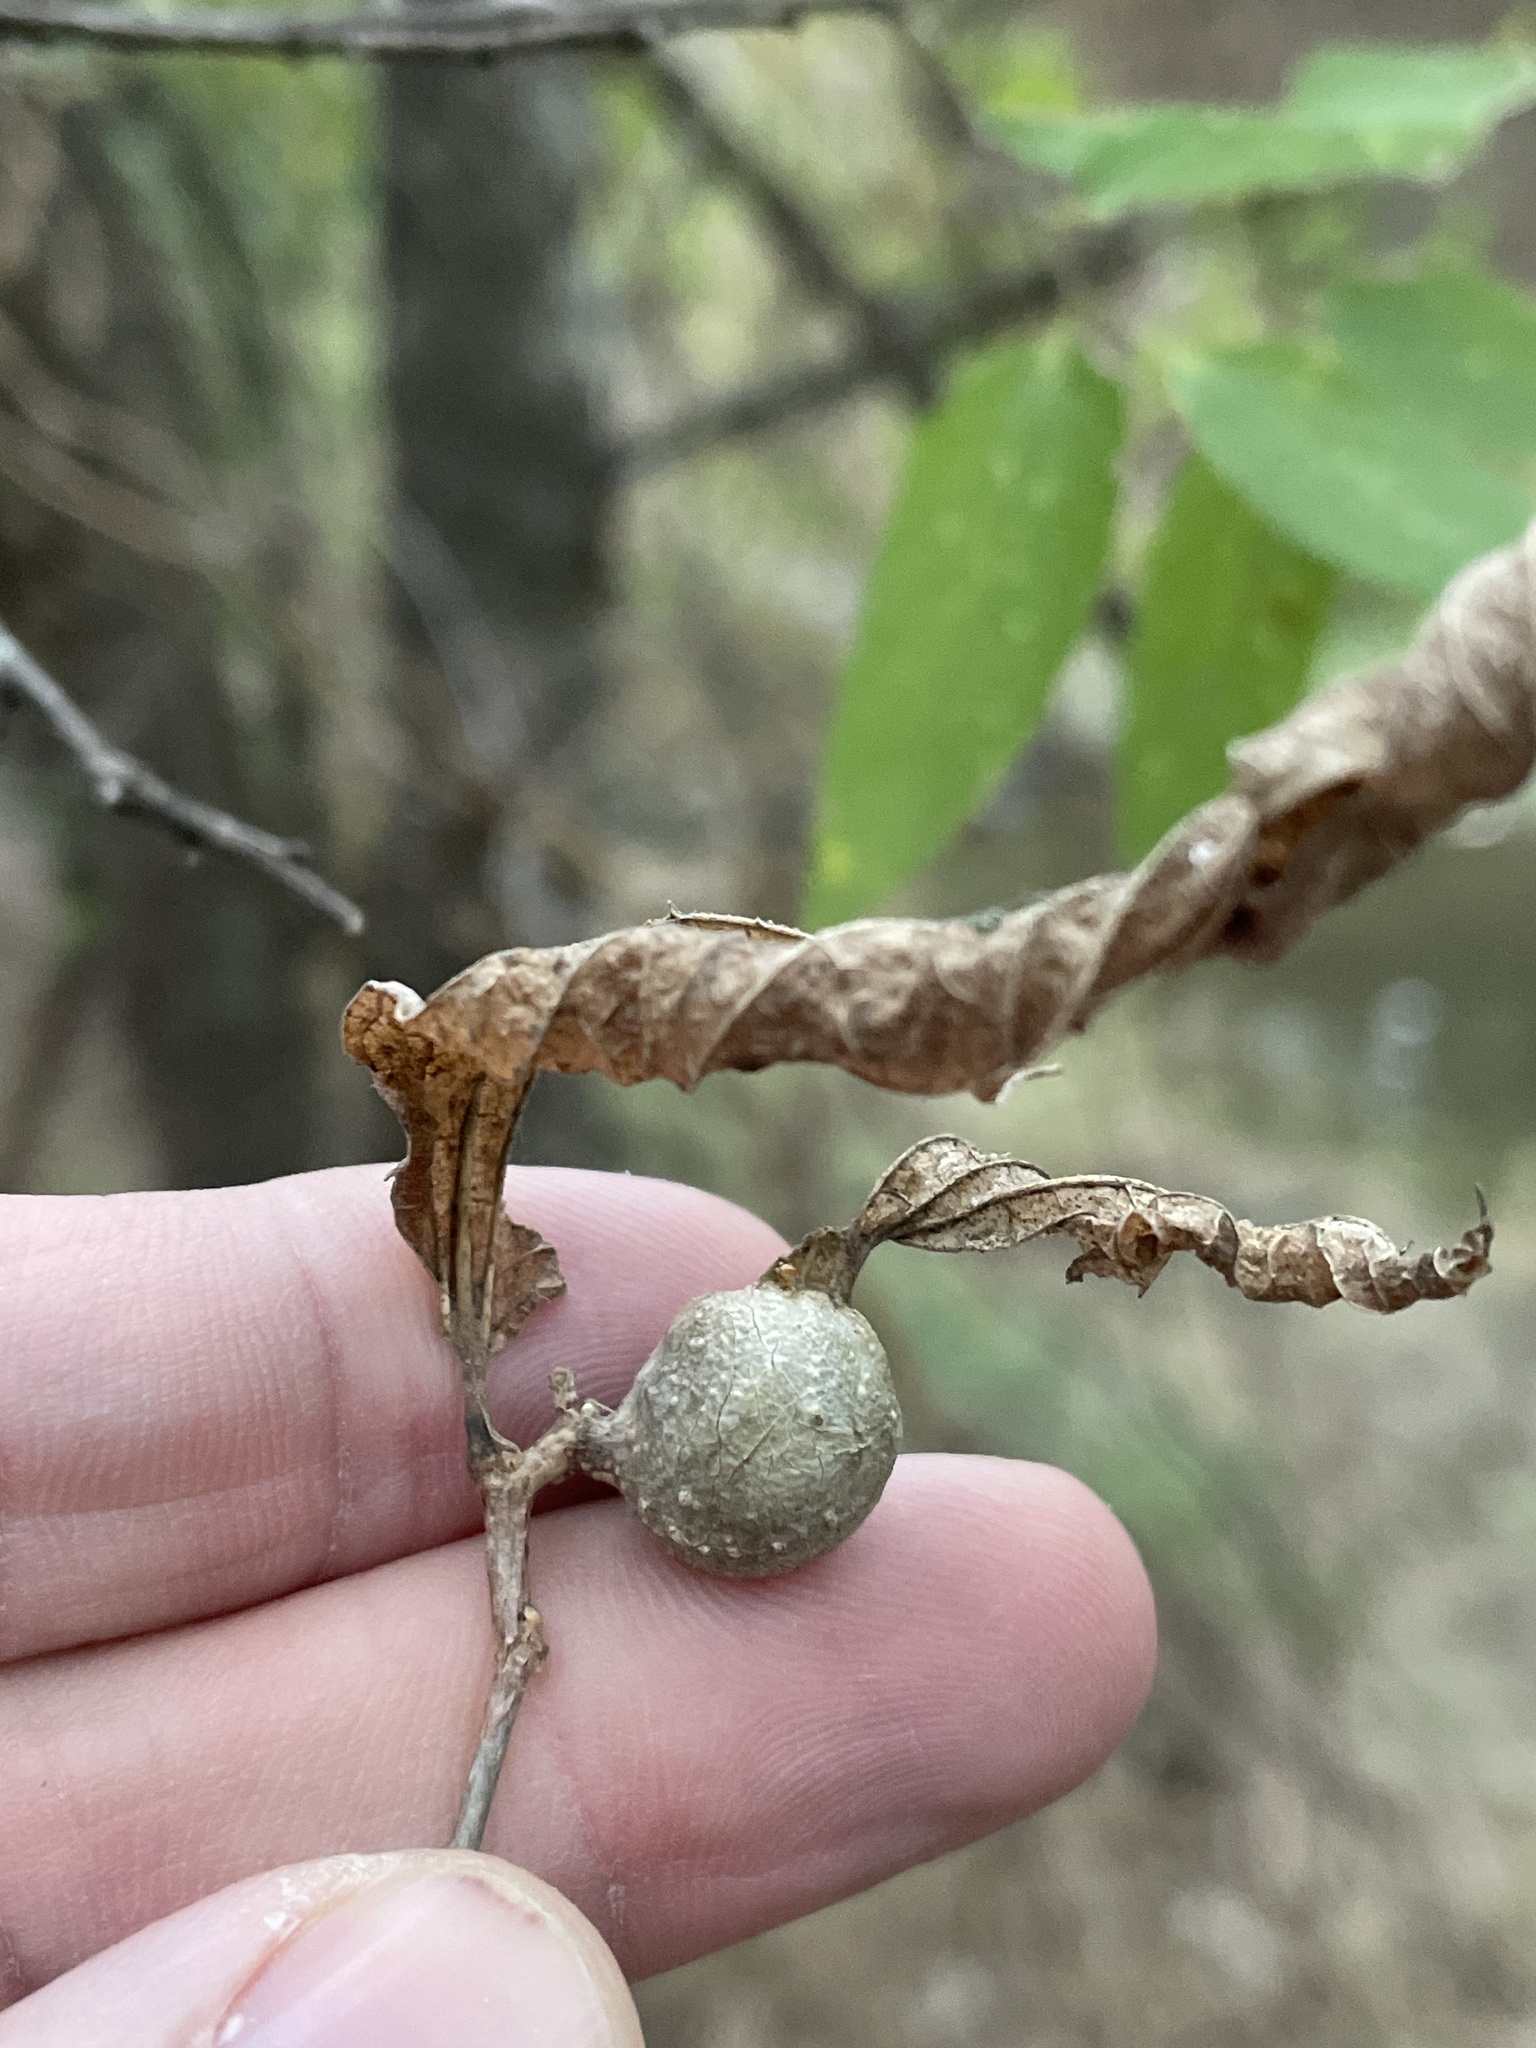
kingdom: Animalia
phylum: Arthropoda
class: Insecta
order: Hemiptera
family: Aphalaridae
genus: Pachypsylla
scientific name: Pachypsylla venusta
